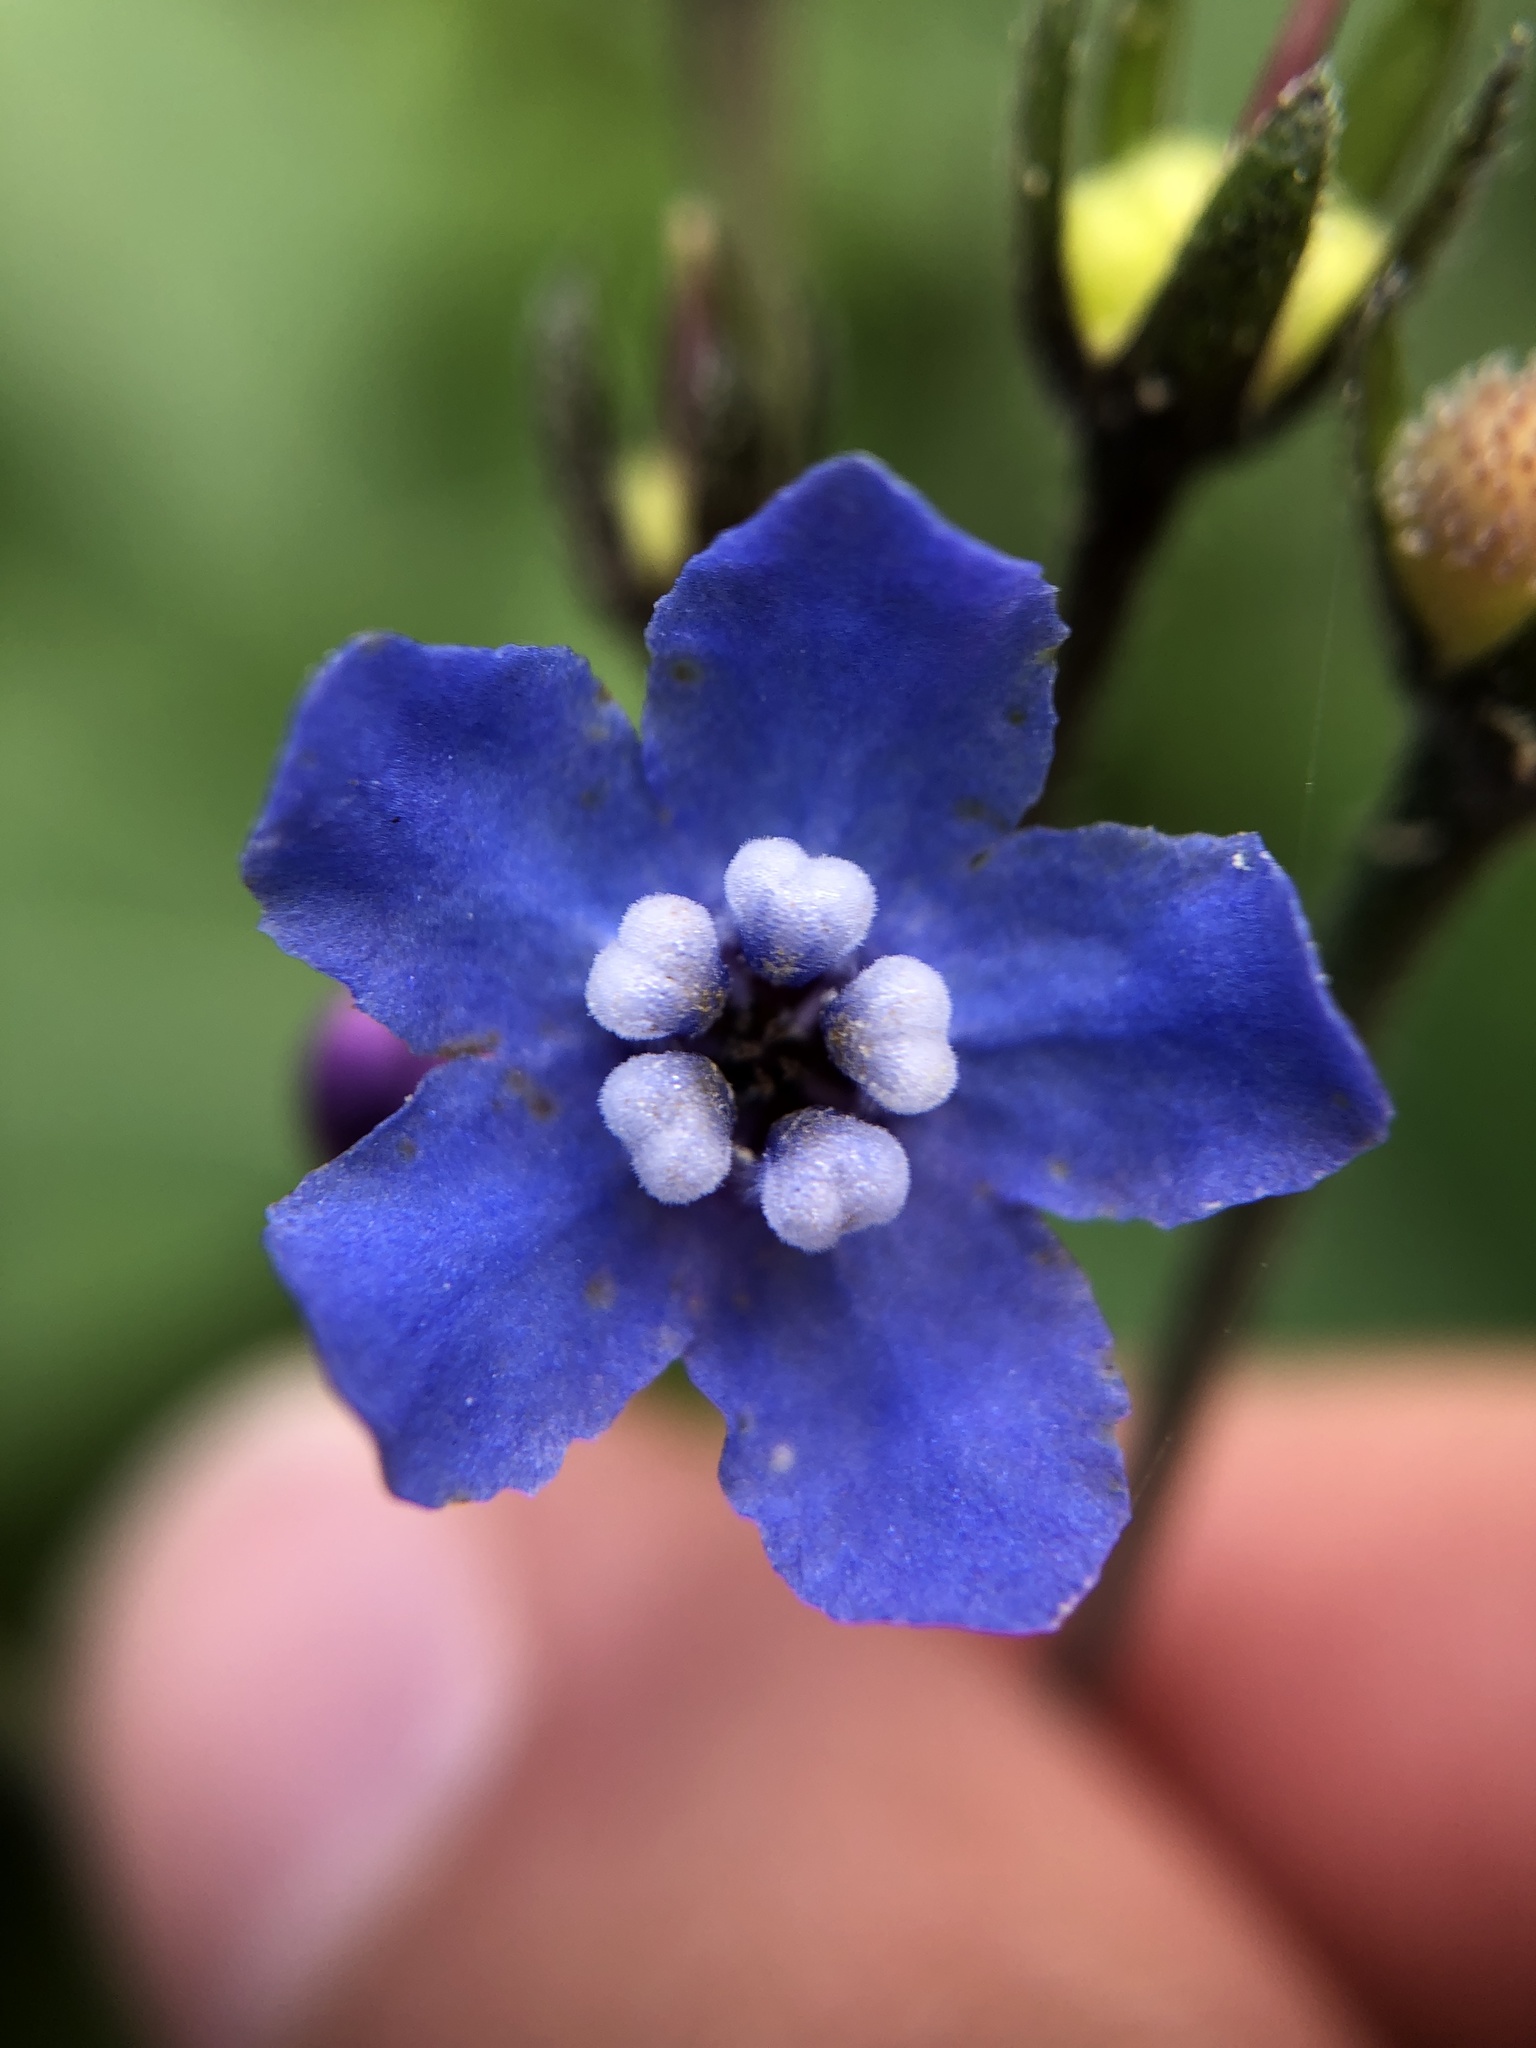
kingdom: Plantae
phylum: Tracheophyta
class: Magnoliopsida
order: Boraginales
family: Boraginaceae
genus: Adelinia
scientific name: Adelinia grande
